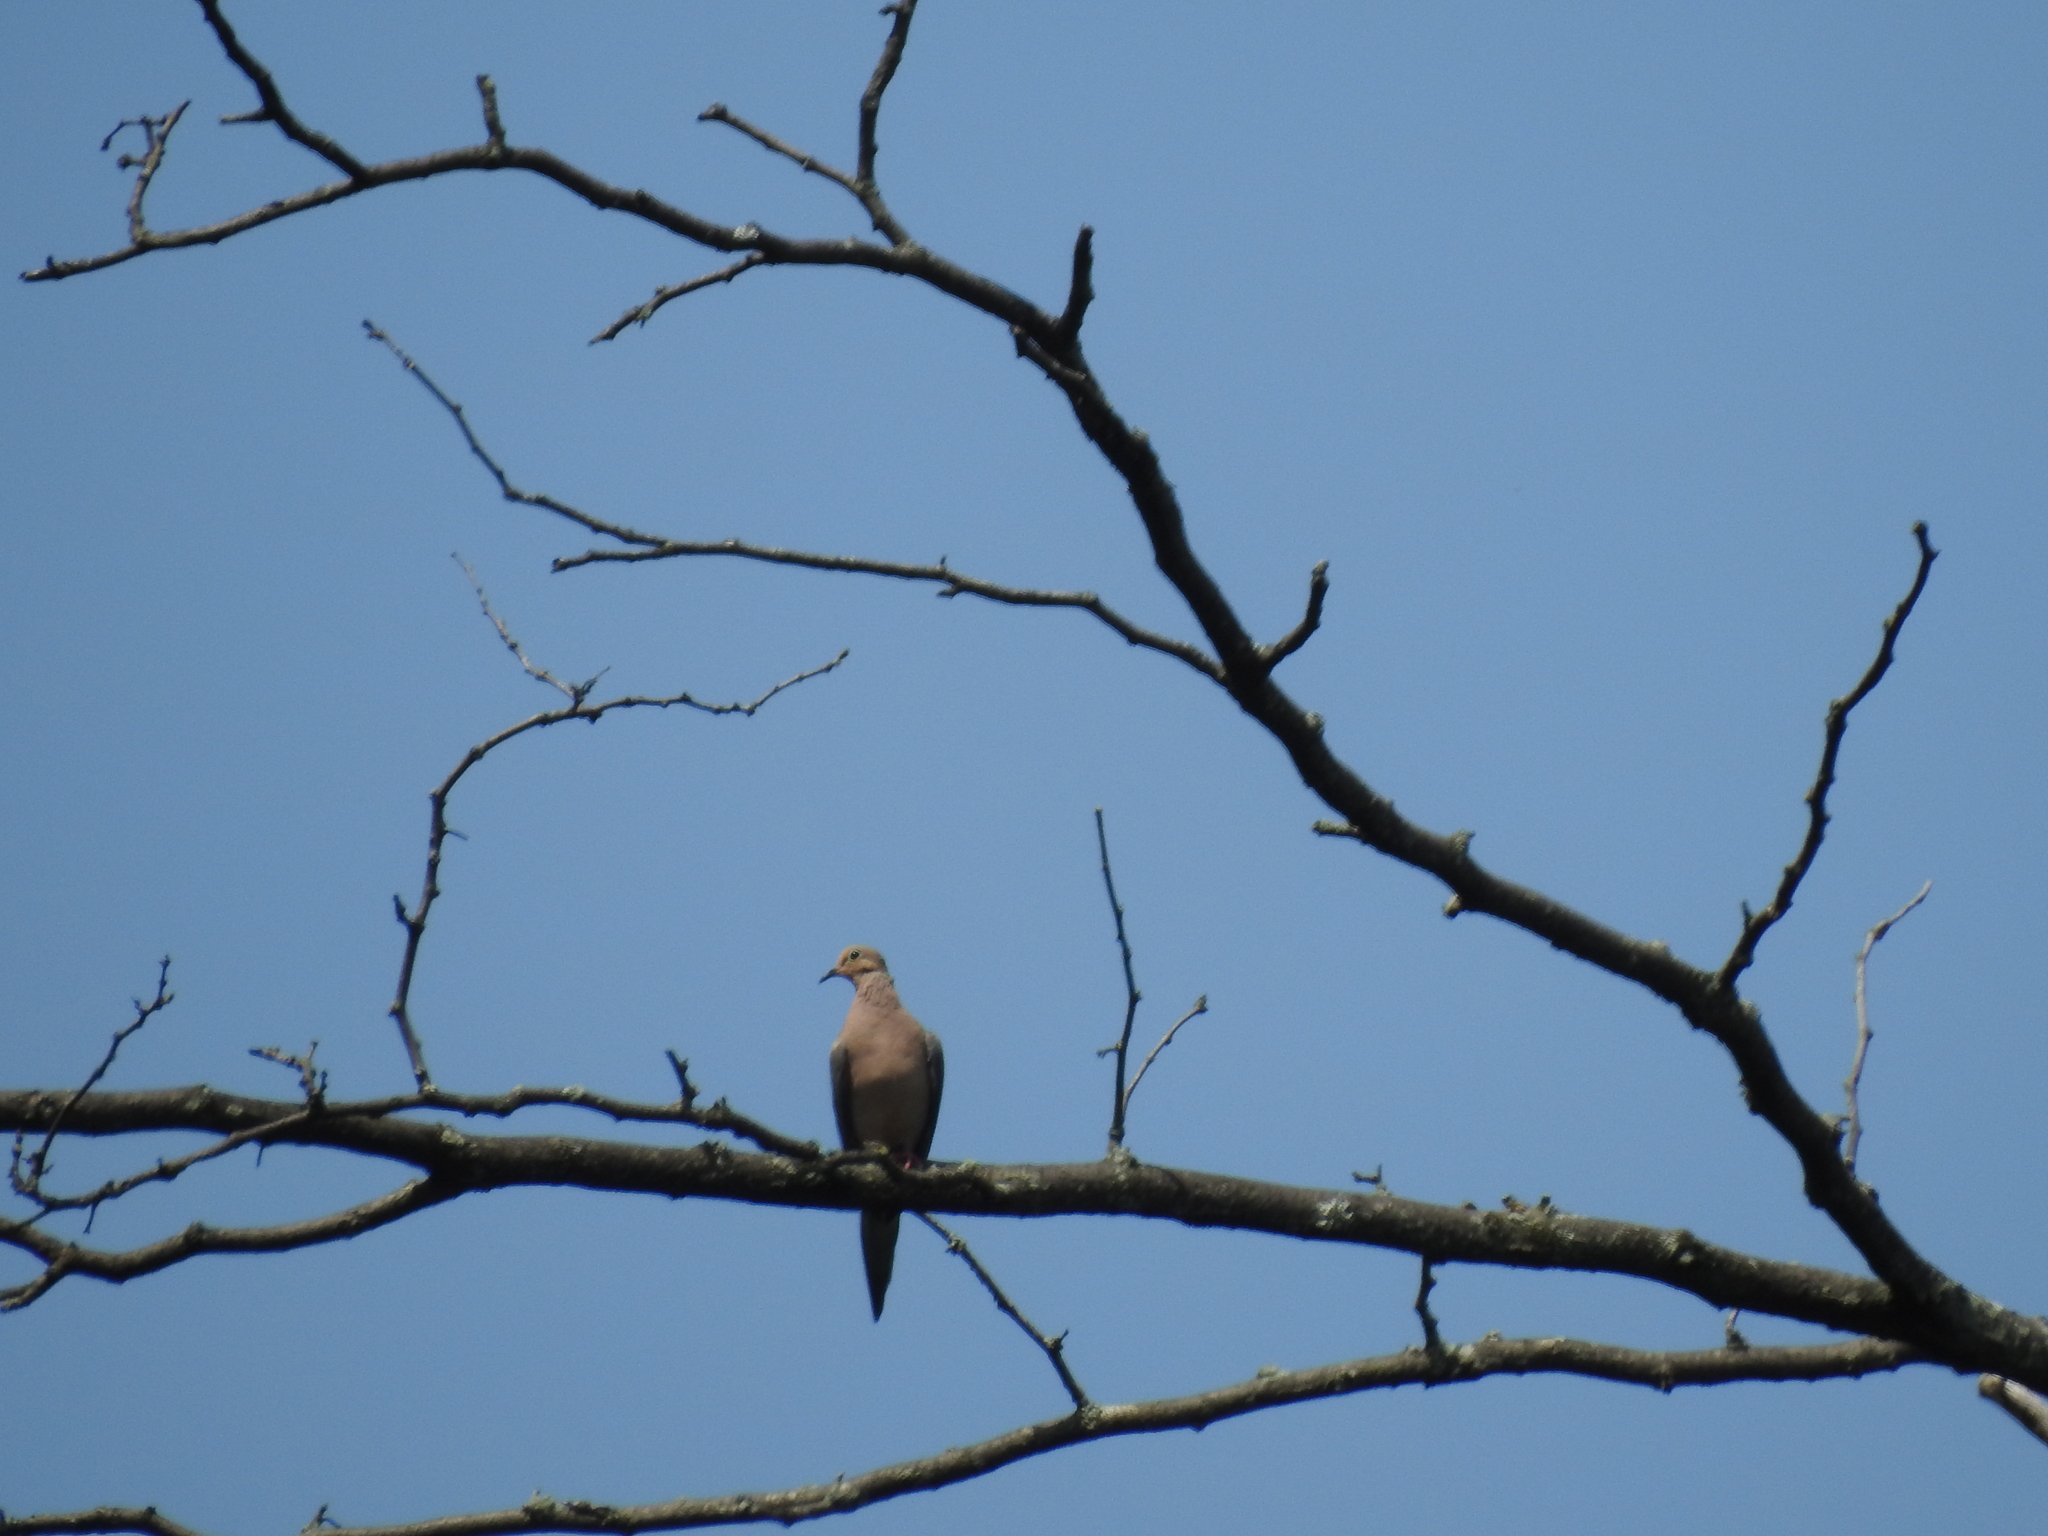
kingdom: Animalia
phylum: Chordata
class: Aves
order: Columbiformes
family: Columbidae
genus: Zenaida
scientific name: Zenaida macroura
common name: Mourning dove
